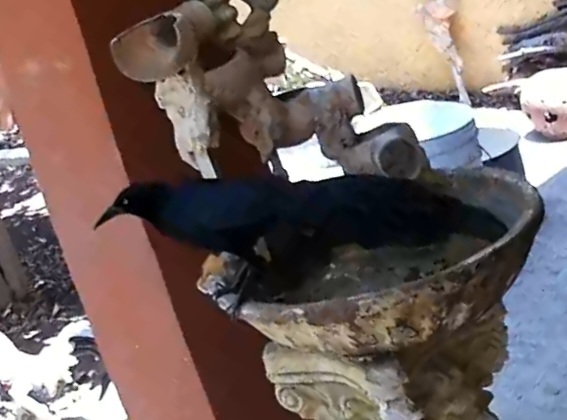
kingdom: Animalia
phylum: Chordata
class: Aves
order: Passeriformes
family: Icteridae
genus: Quiscalus
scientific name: Quiscalus mexicanus
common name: Great-tailed grackle
